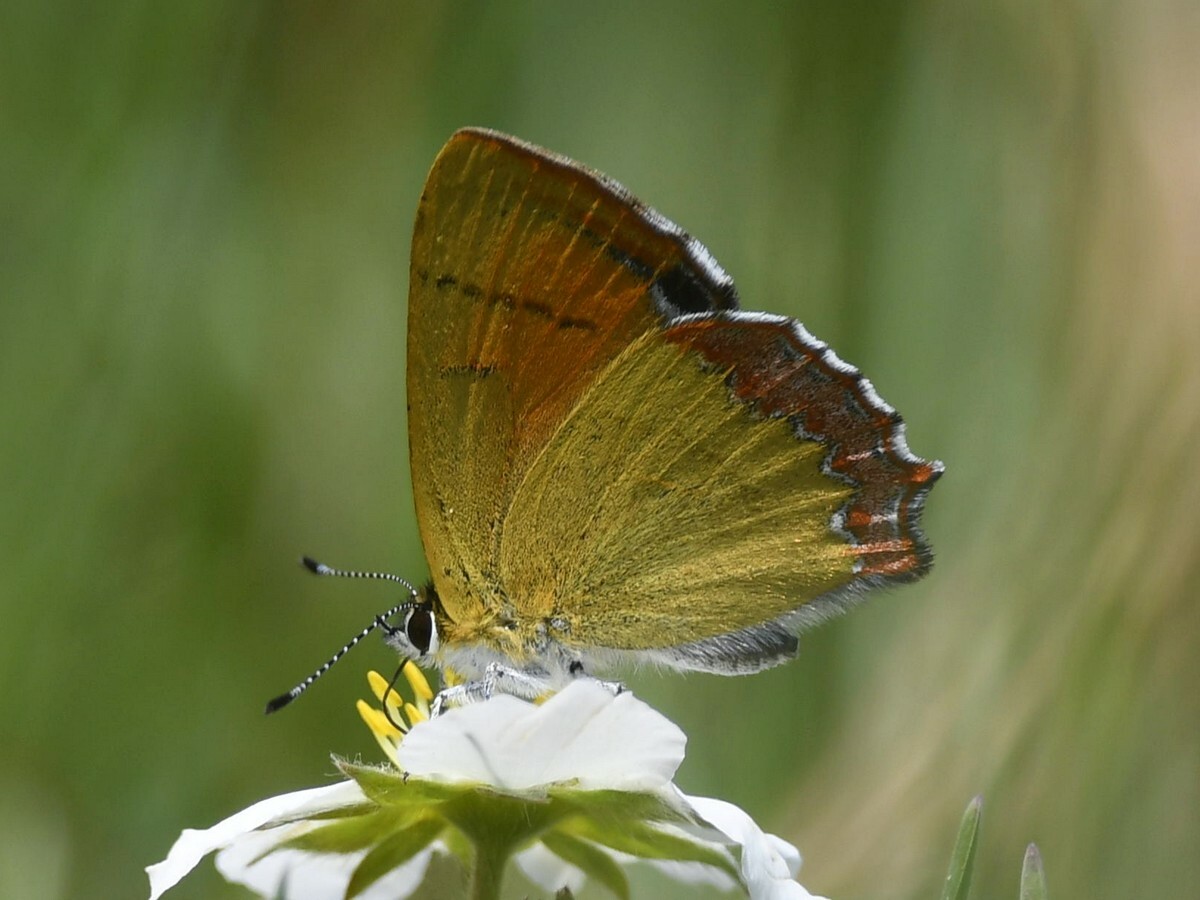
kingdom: Animalia
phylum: Arthropoda
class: Insecta
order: Lepidoptera
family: Lycaenidae
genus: Heliophorus
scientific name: Heliophorus oda
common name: Eastern blue sapphire
